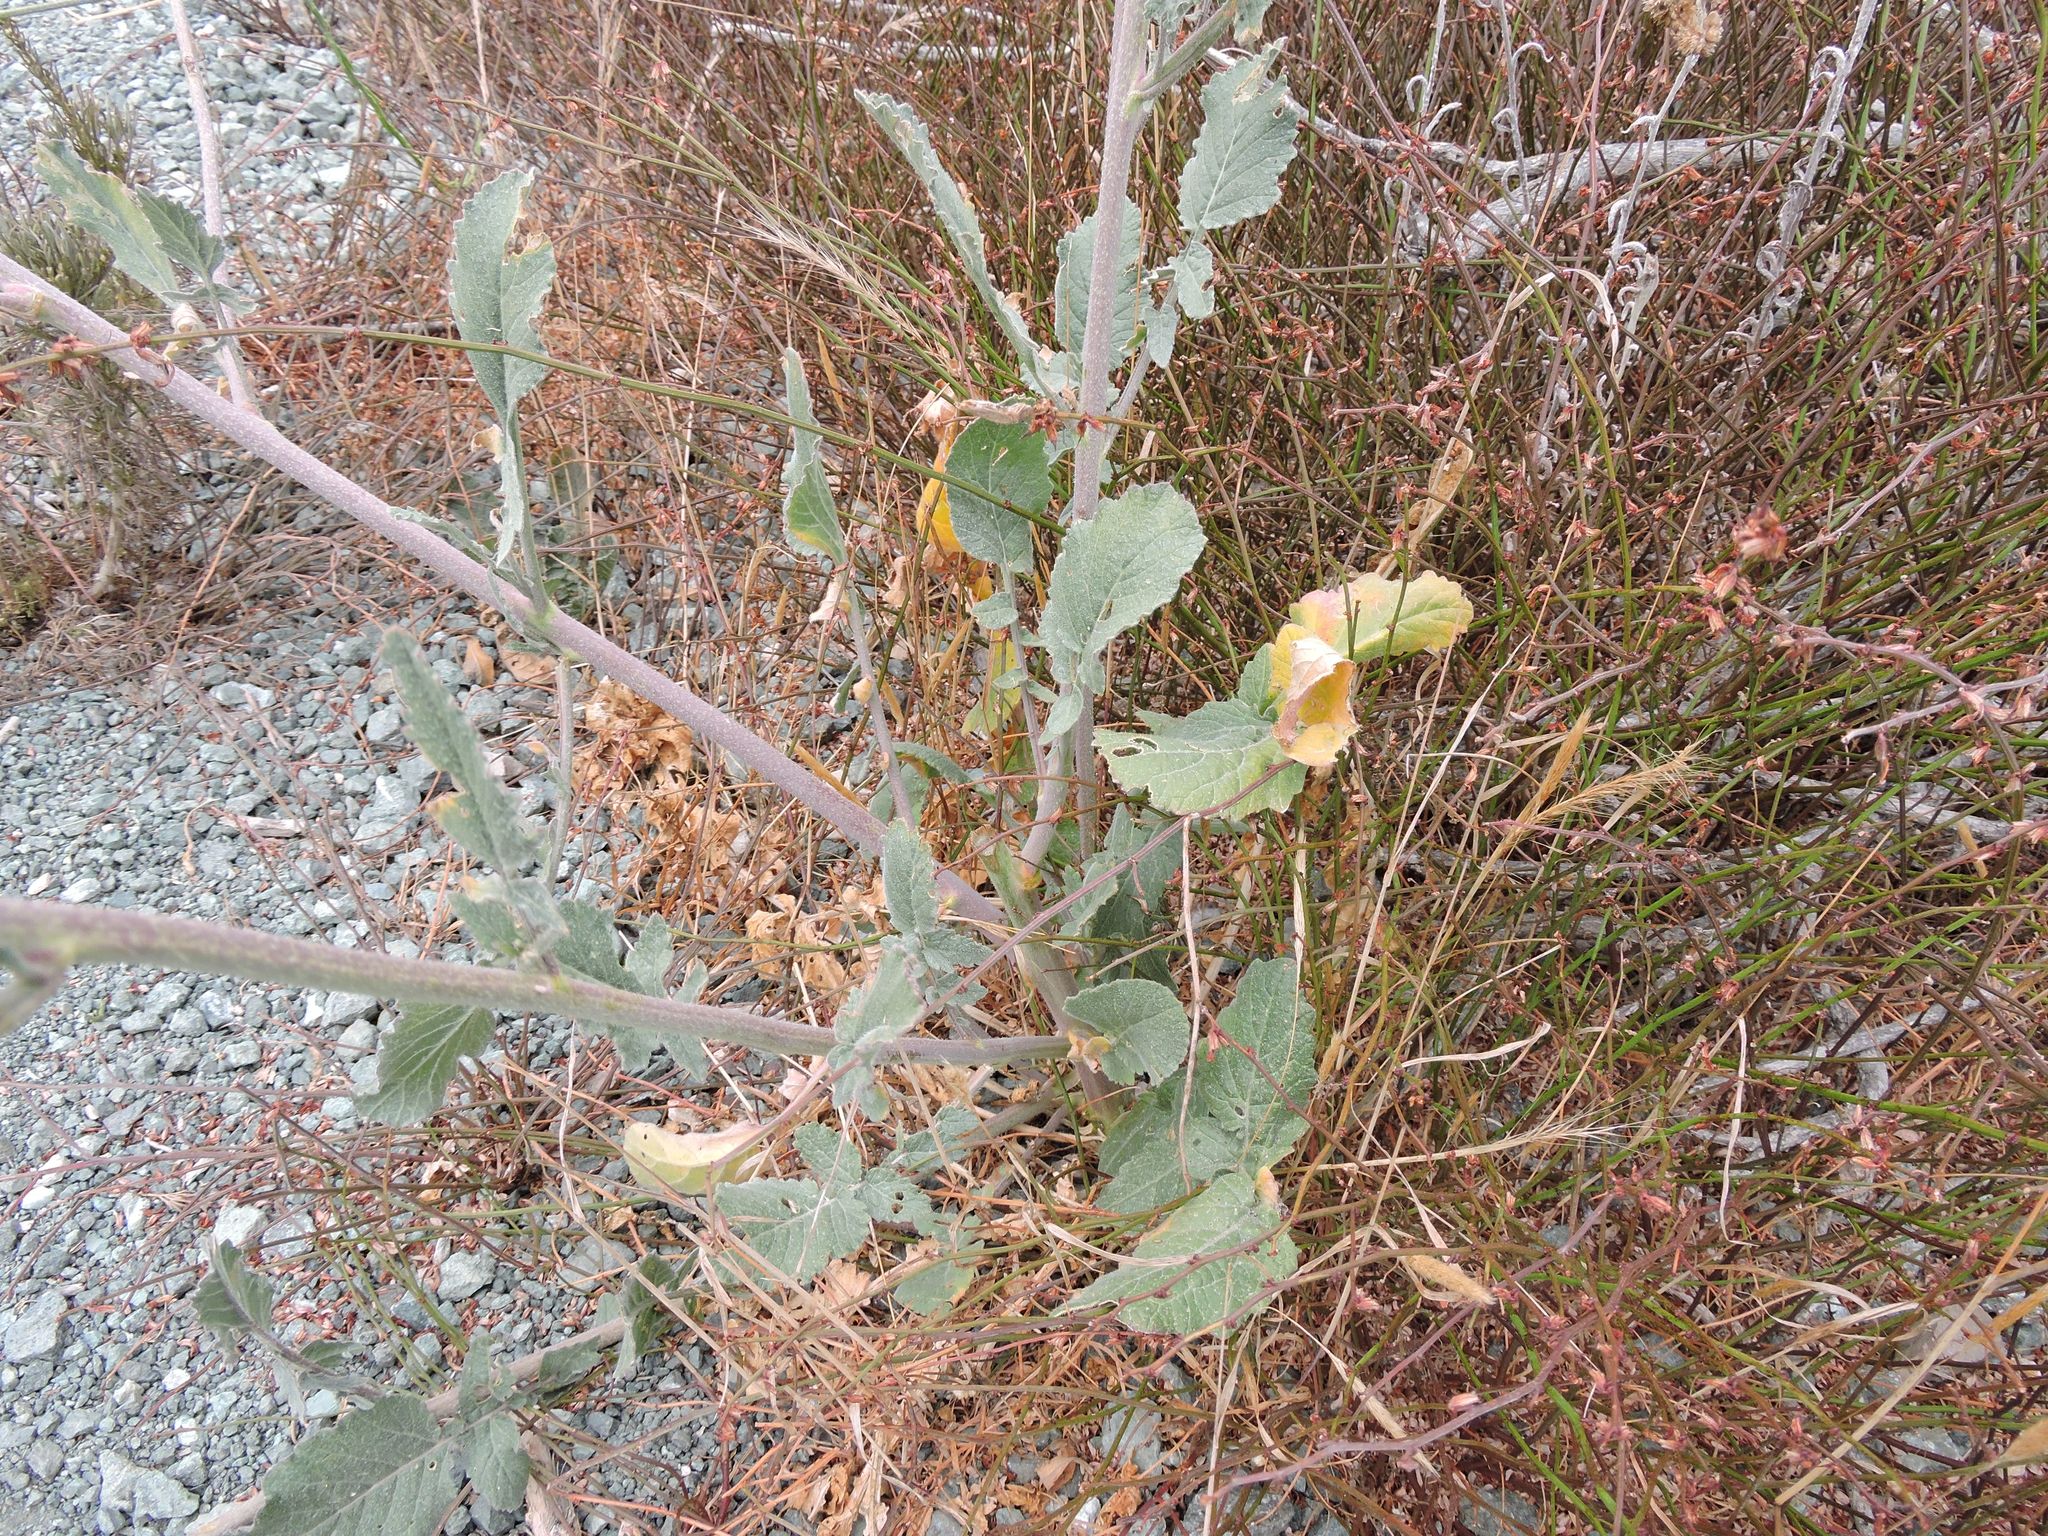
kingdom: Plantae
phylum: Tracheophyta
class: Magnoliopsida
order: Brassicales
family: Brassicaceae
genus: Hirschfeldia
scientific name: Hirschfeldia incana
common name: Hoary mustard
